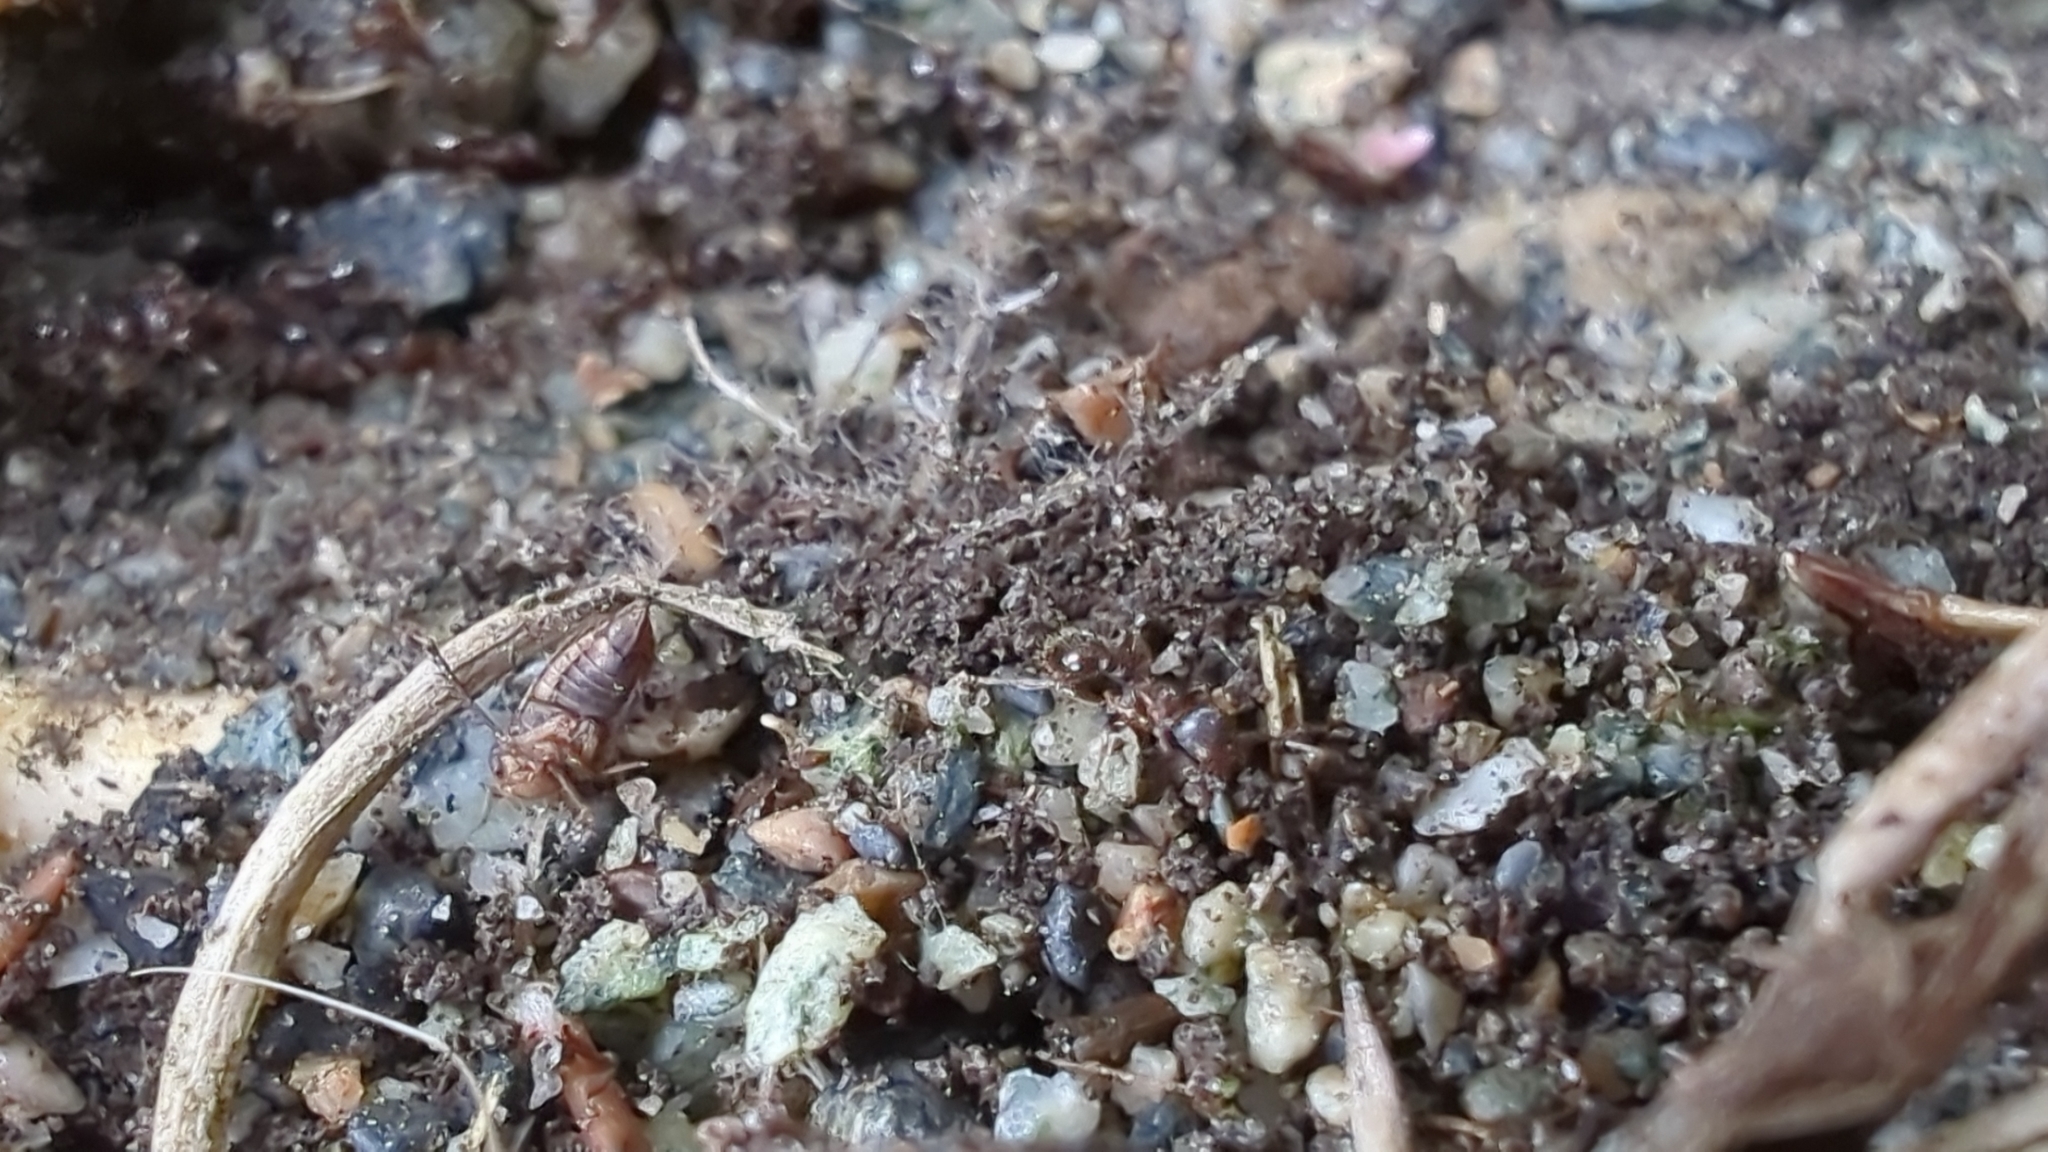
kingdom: Animalia
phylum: Arthropoda
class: Insecta
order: Hymenoptera
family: Formicidae
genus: Tetramorium
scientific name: Tetramorium immigrans
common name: Pavement ant
